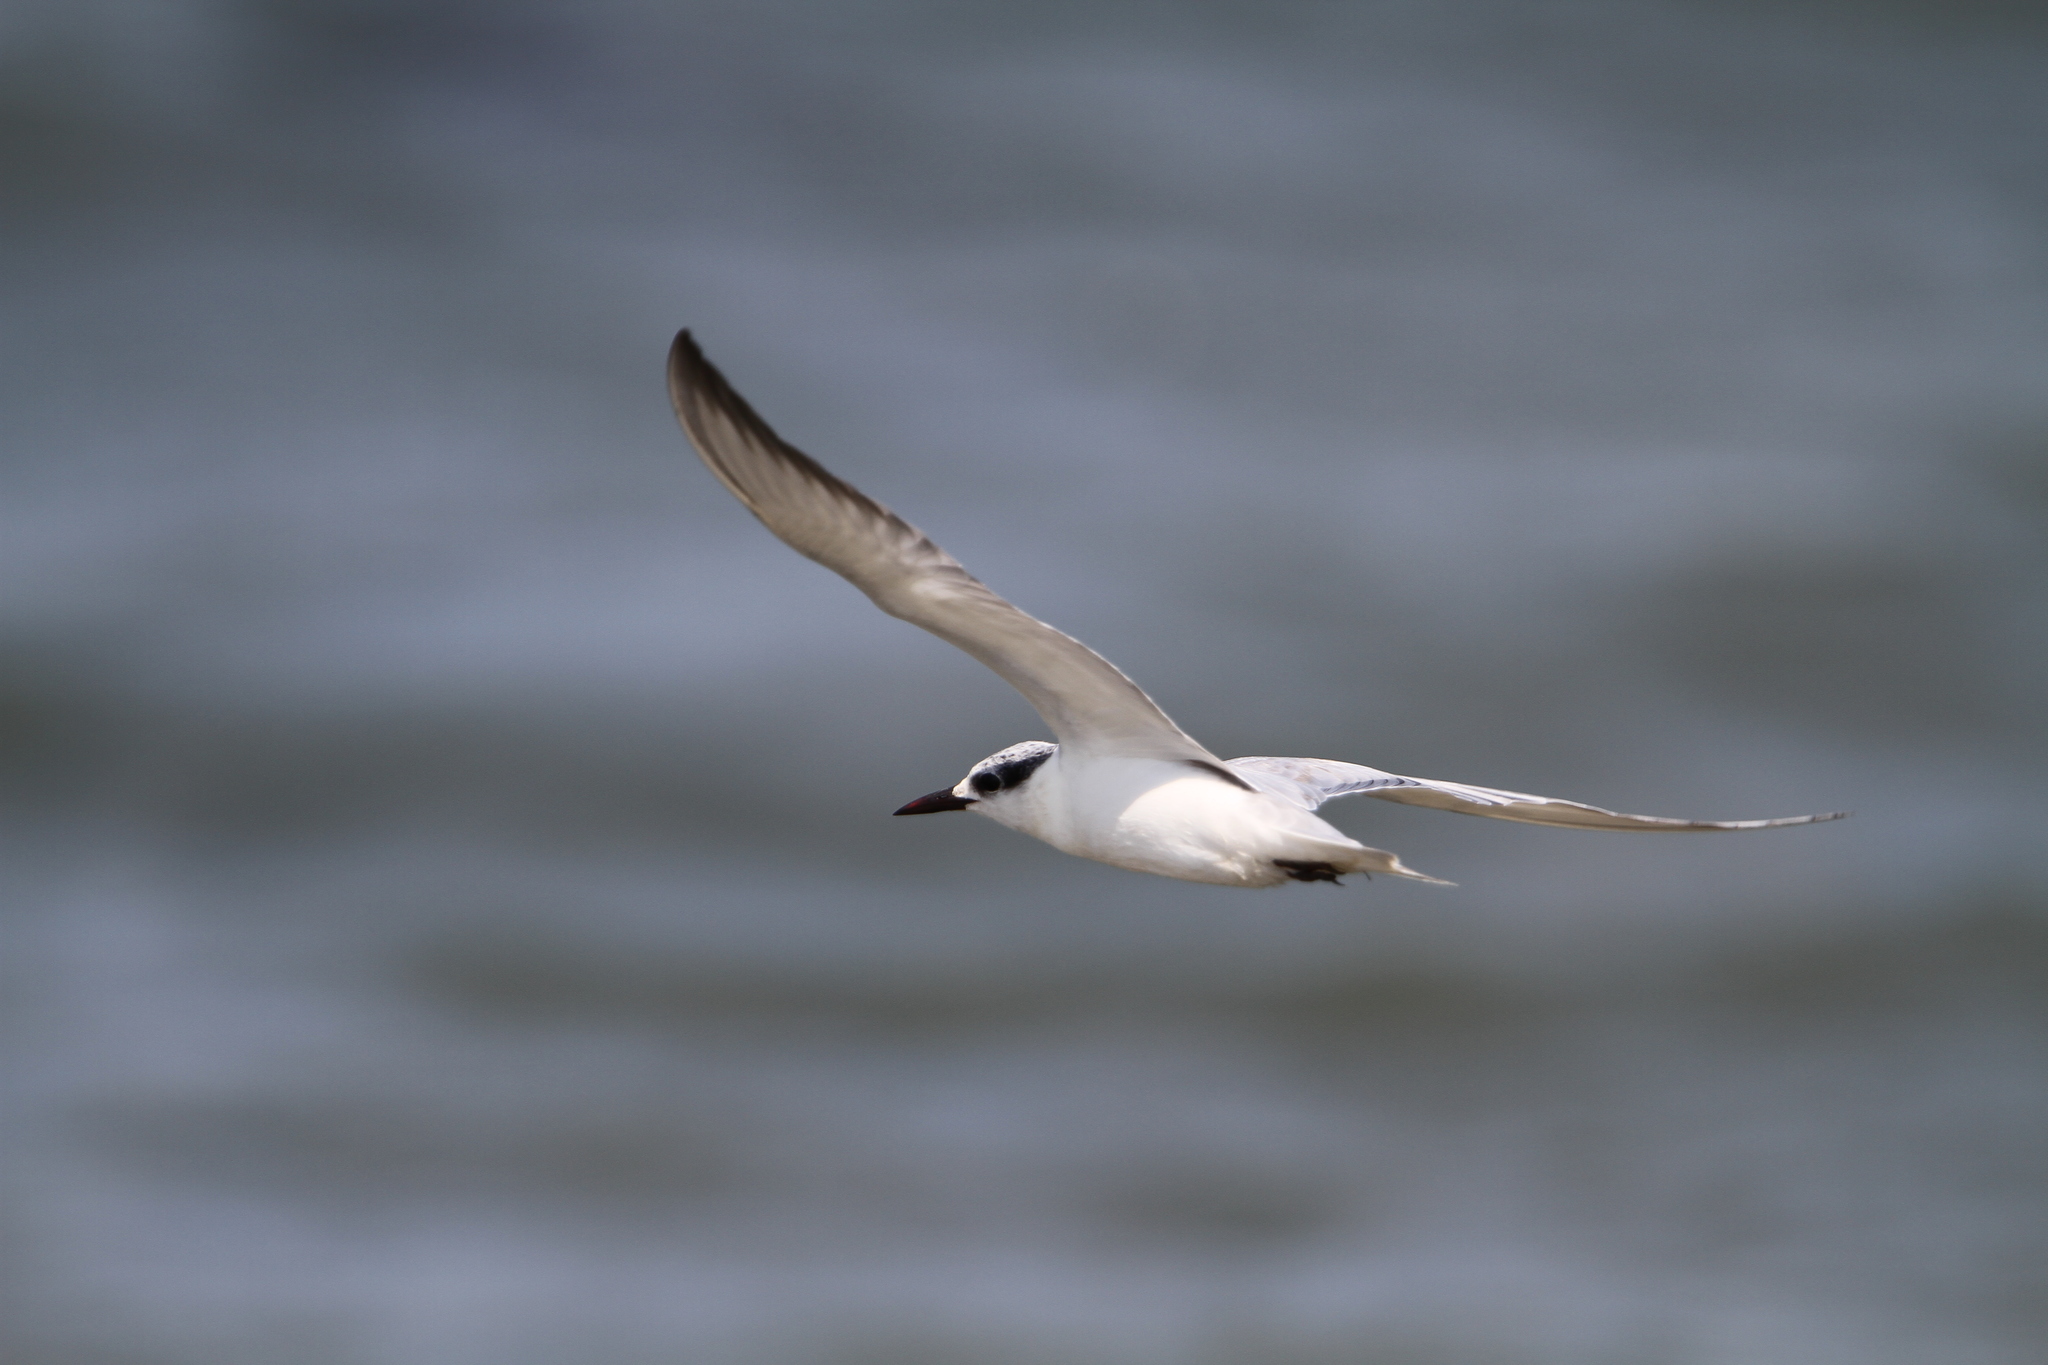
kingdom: Animalia
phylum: Chordata
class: Aves
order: Charadriiformes
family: Laridae
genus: Chlidonias
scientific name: Chlidonias hybrida
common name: Whiskered tern
